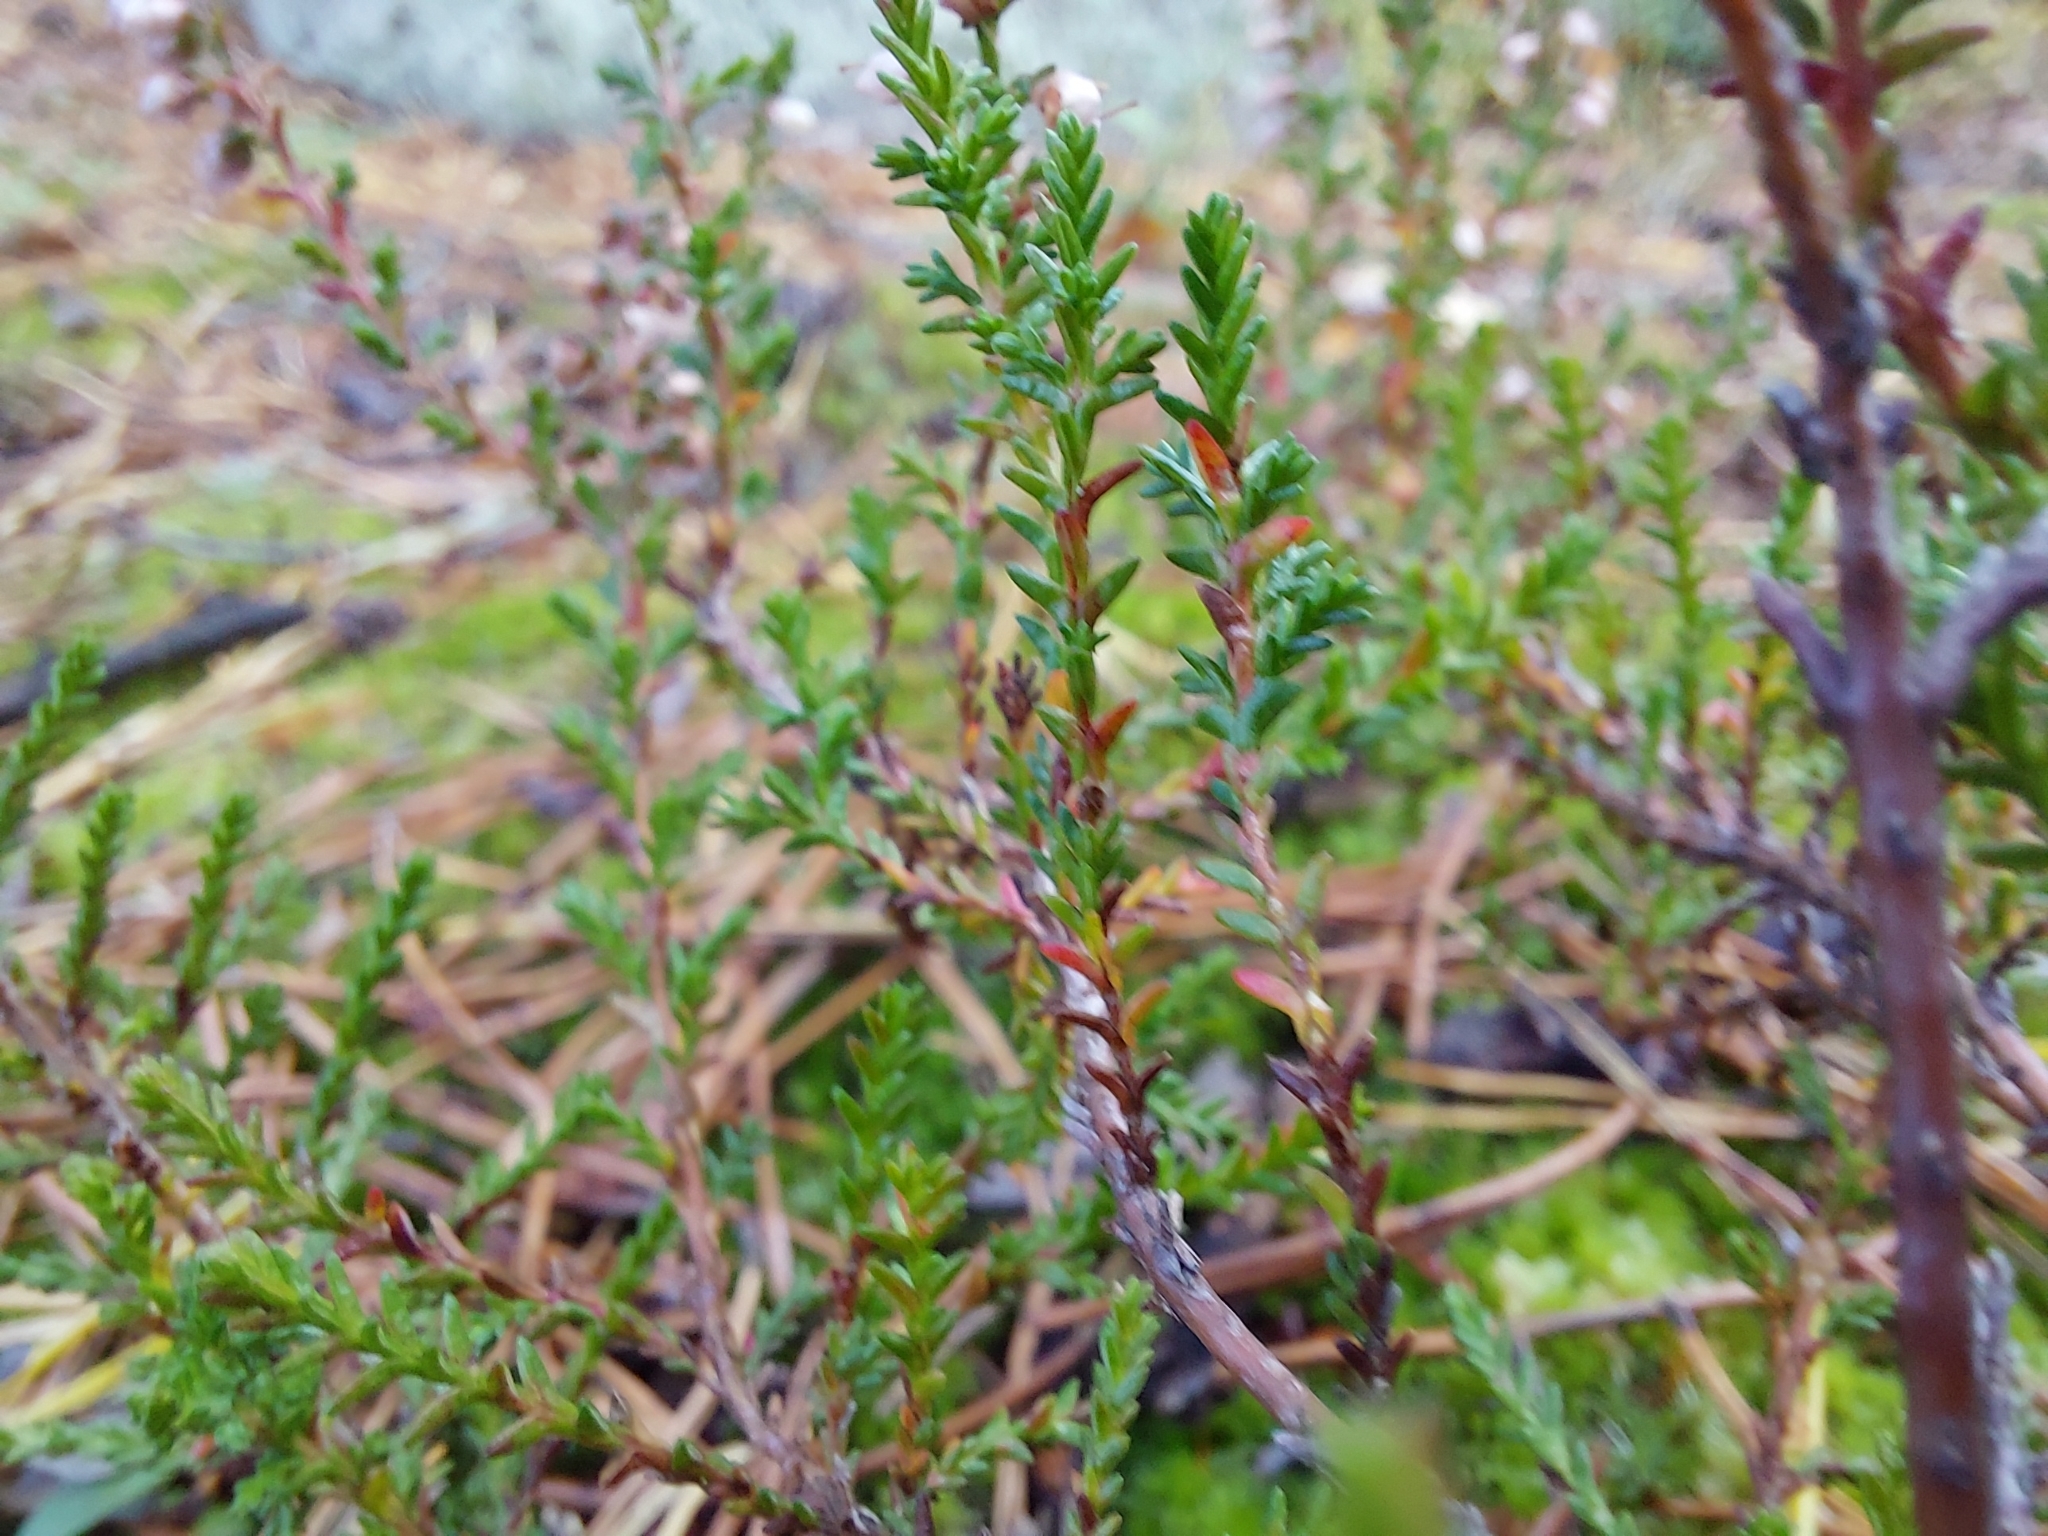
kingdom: Plantae
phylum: Tracheophyta
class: Magnoliopsida
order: Ericales
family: Ericaceae
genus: Calluna
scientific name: Calluna vulgaris
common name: Heather
